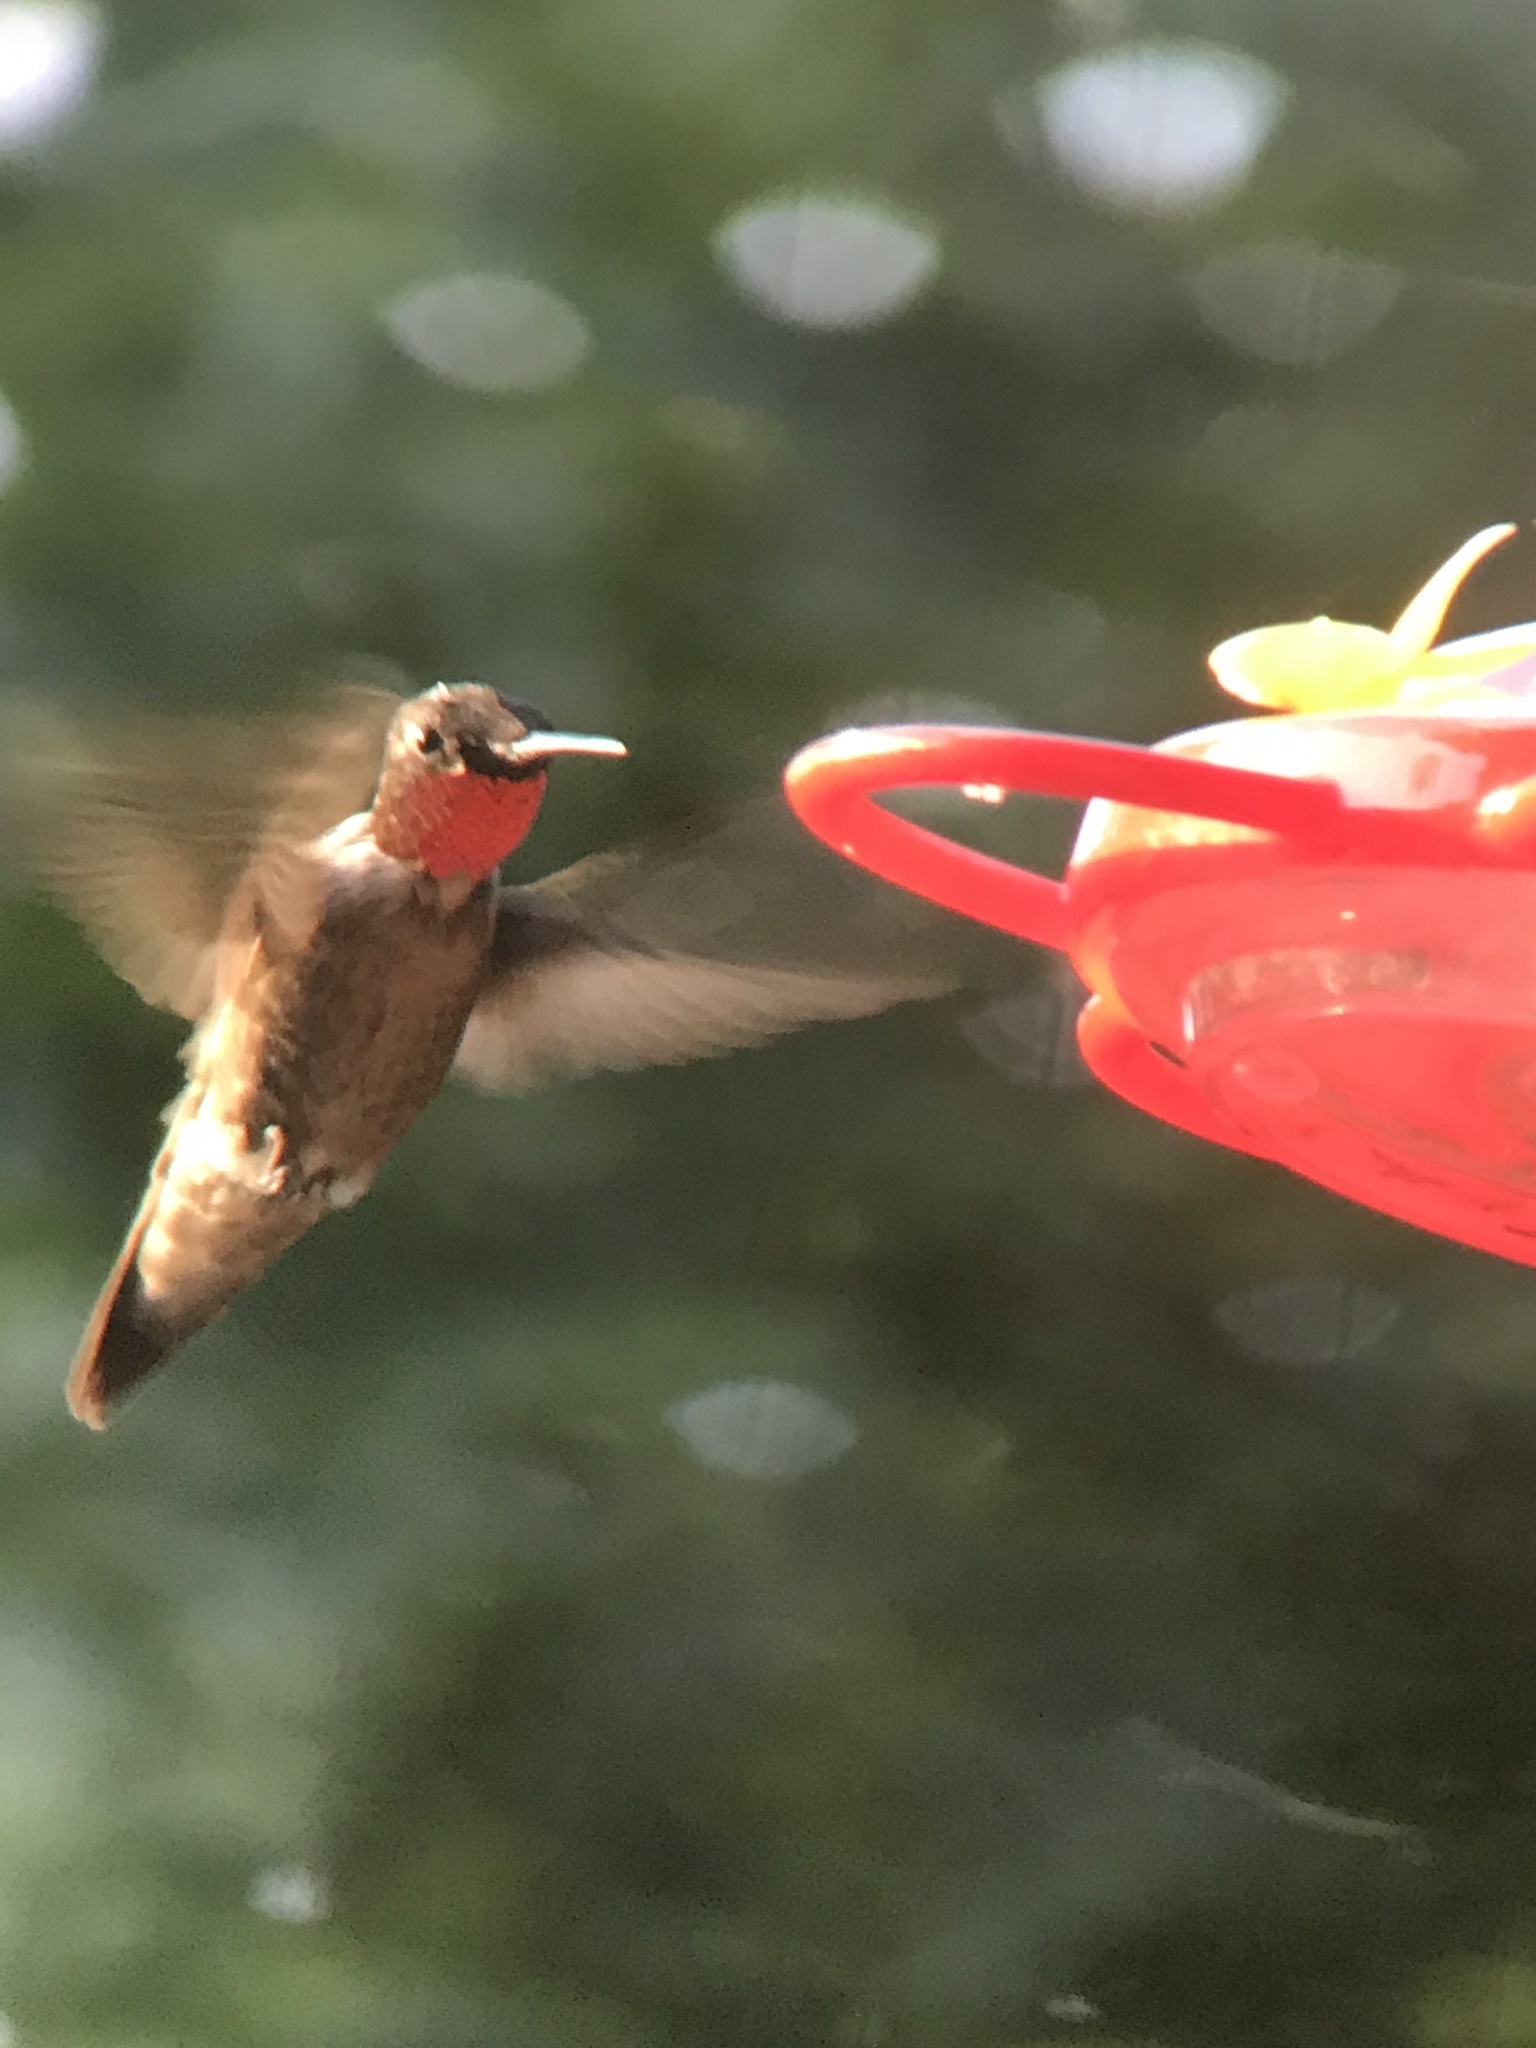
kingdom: Animalia
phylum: Chordata
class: Aves
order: Apodiformes
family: Trochilidae
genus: Archilochus
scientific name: Archilochus colubris
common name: Ruby-throated hummingbird
